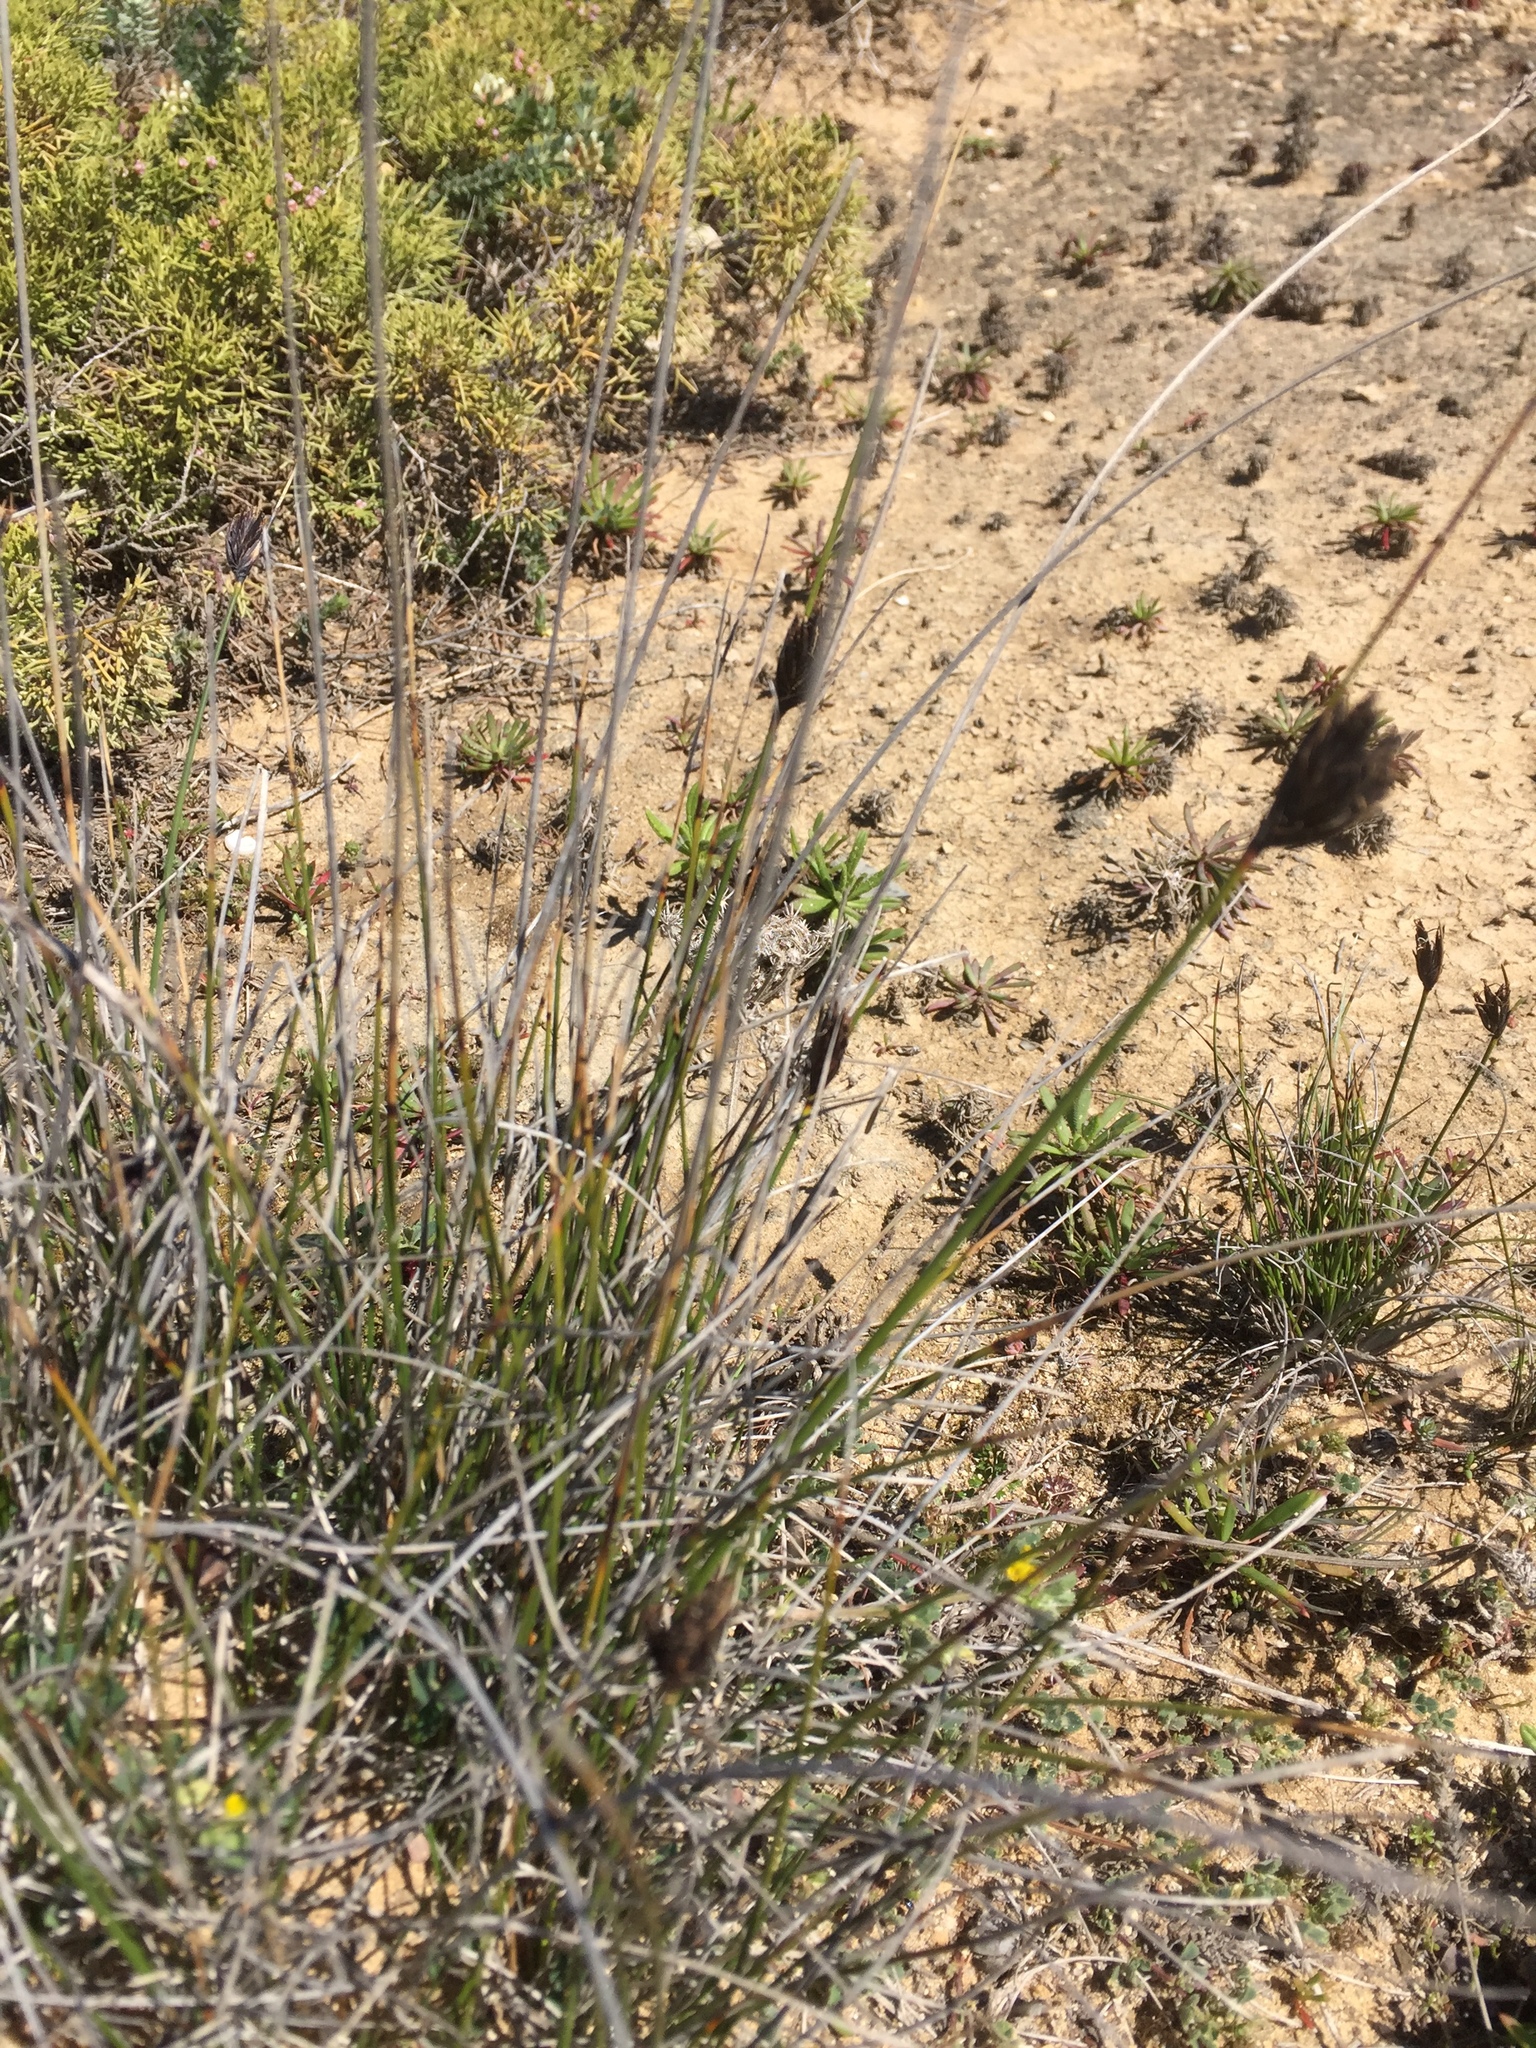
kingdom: Plantae
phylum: Tracheophyta
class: Liliopsida
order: Poales
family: Cyperaceae
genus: Schoenus
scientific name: Schoenus nigricans
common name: Black bog-rush
